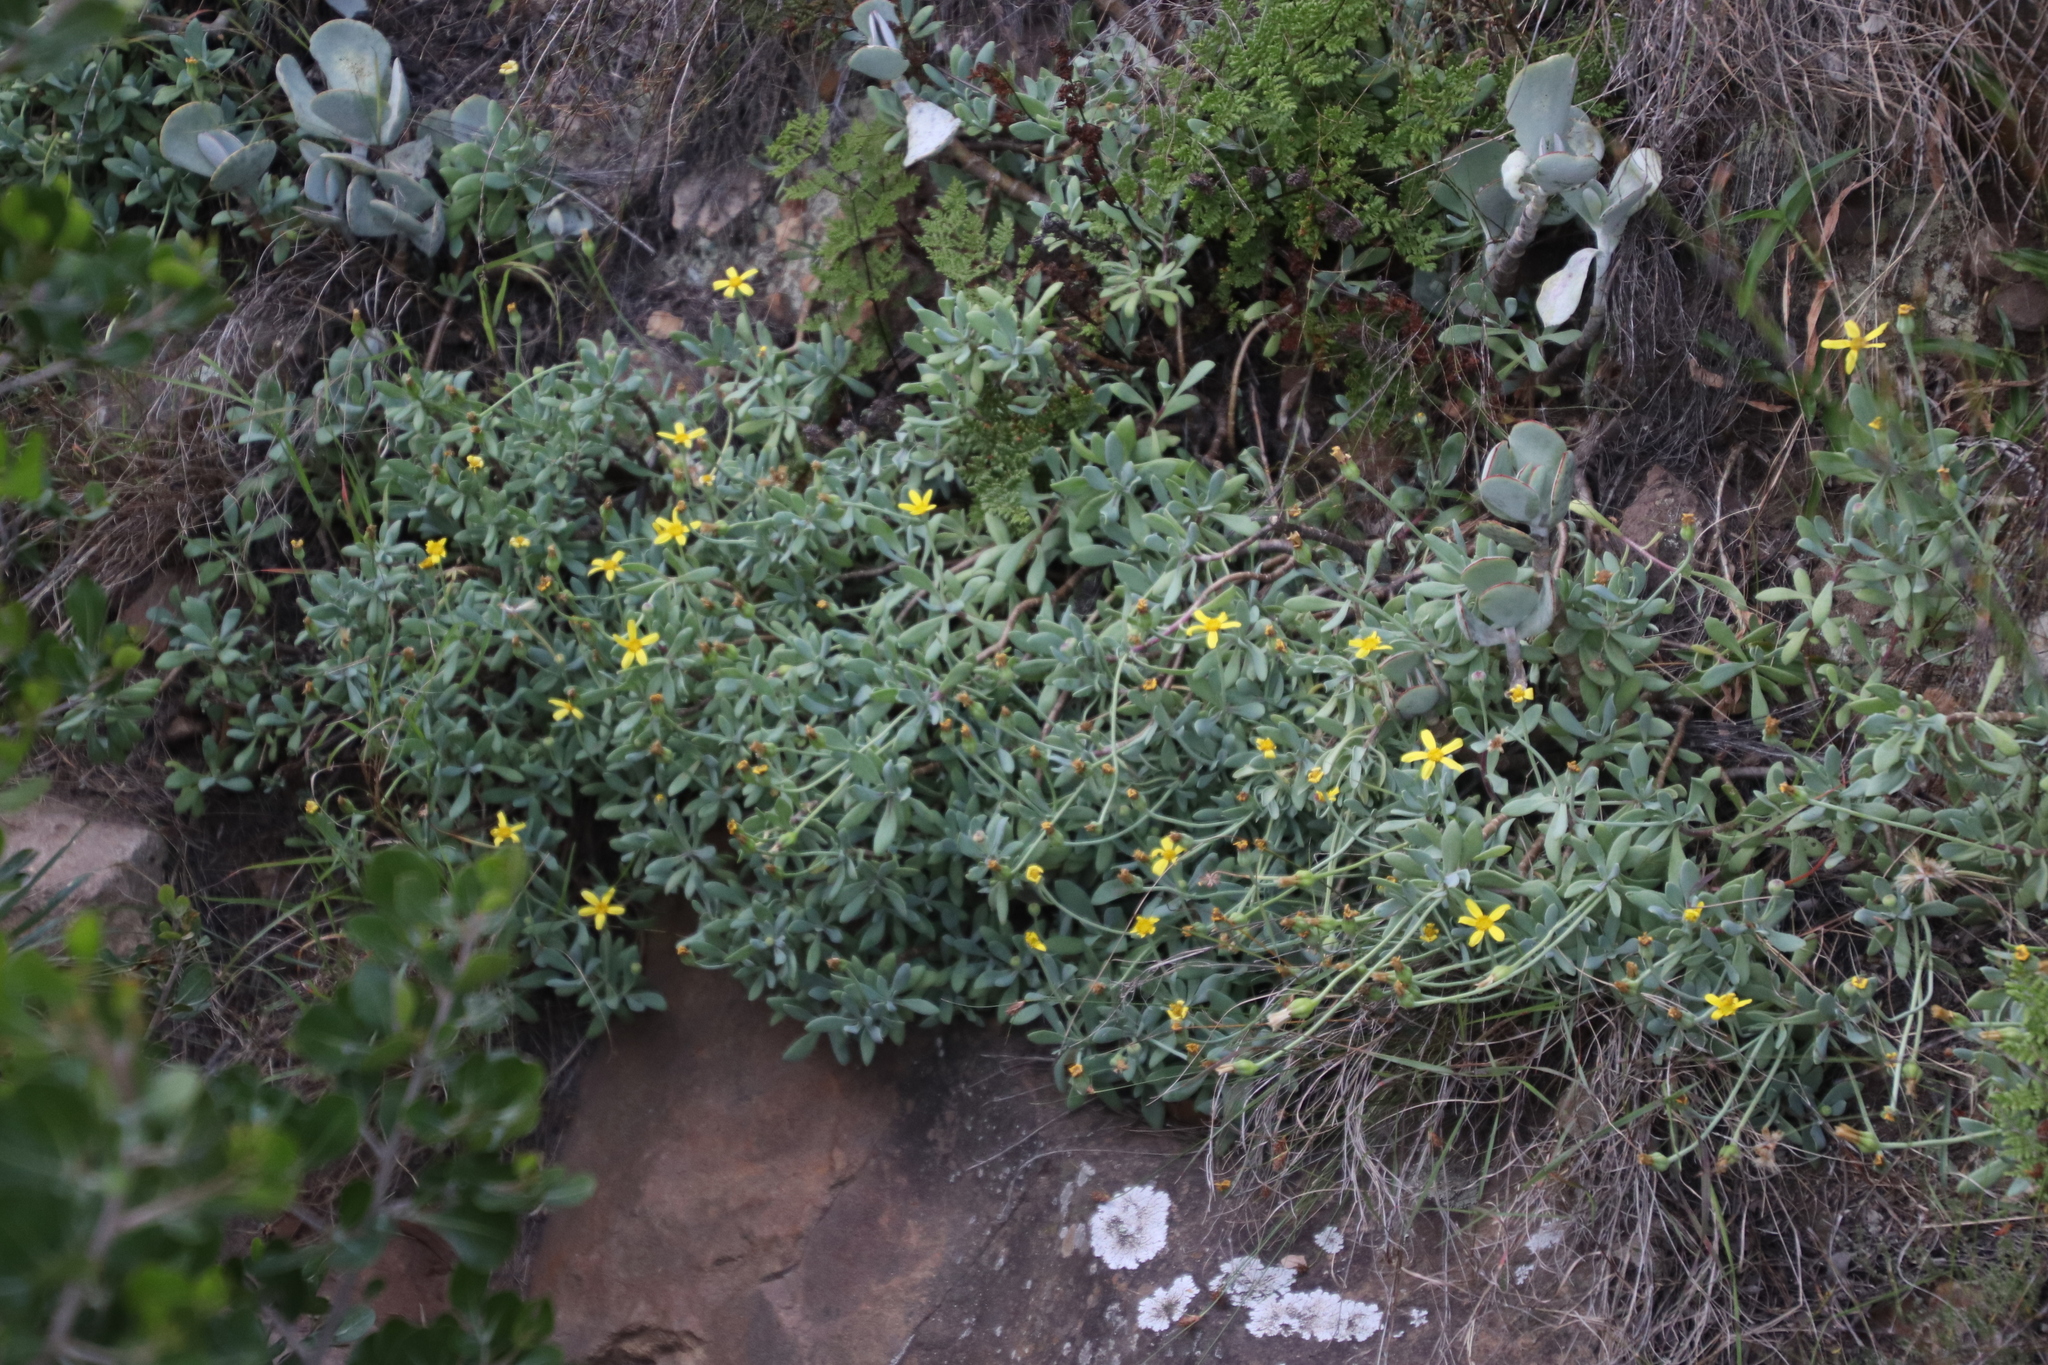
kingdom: Plantae
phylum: Tracheophyta
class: Magnoliopsida
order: Asterales
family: Asteraceae
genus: Othonna
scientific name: Othonna arborescens
